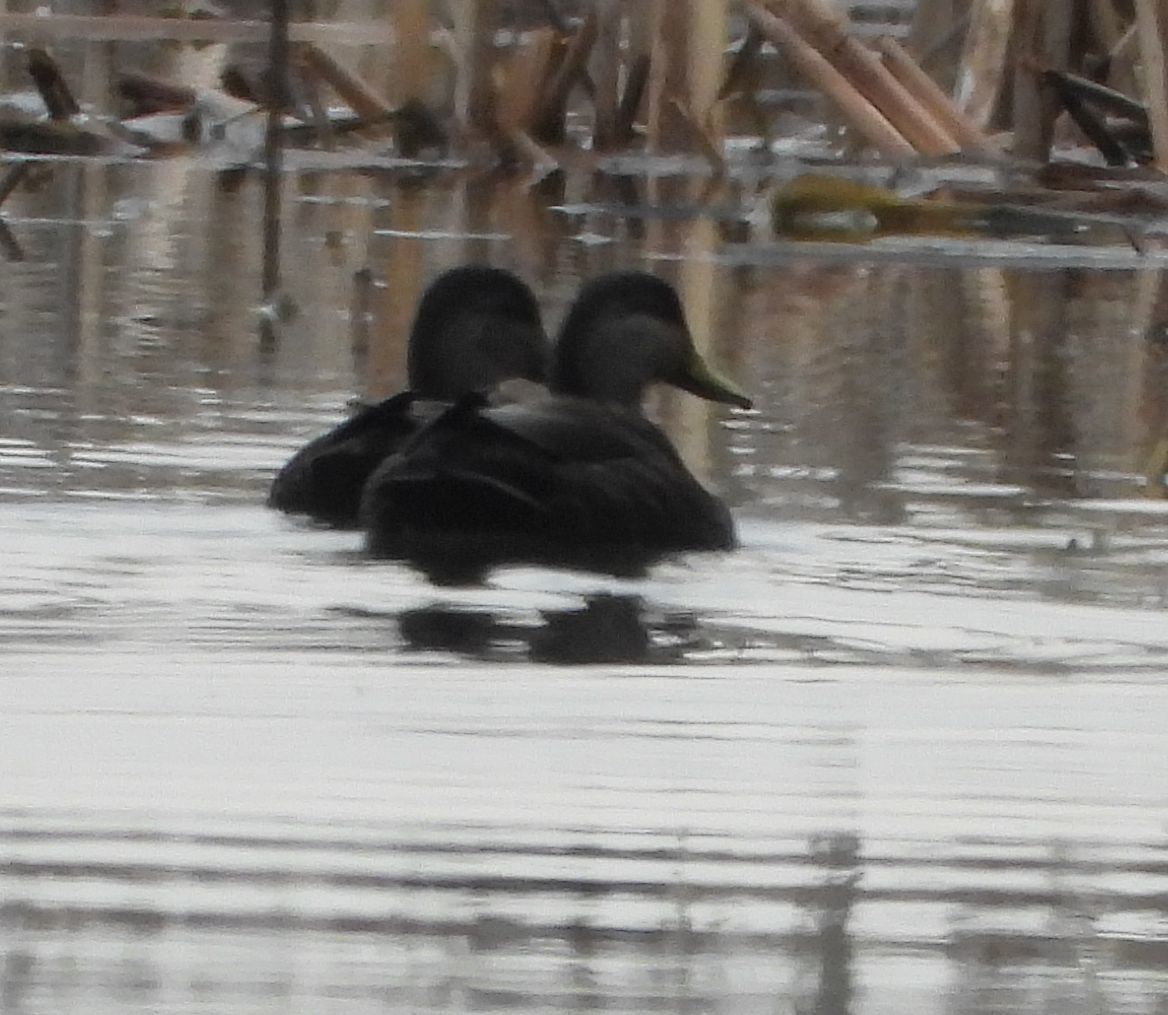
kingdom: Animalia
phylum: Chordata
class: Aves
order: Anseriformes
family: Anatidae
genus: Anas
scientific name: Anas rubripes
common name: American black duck
